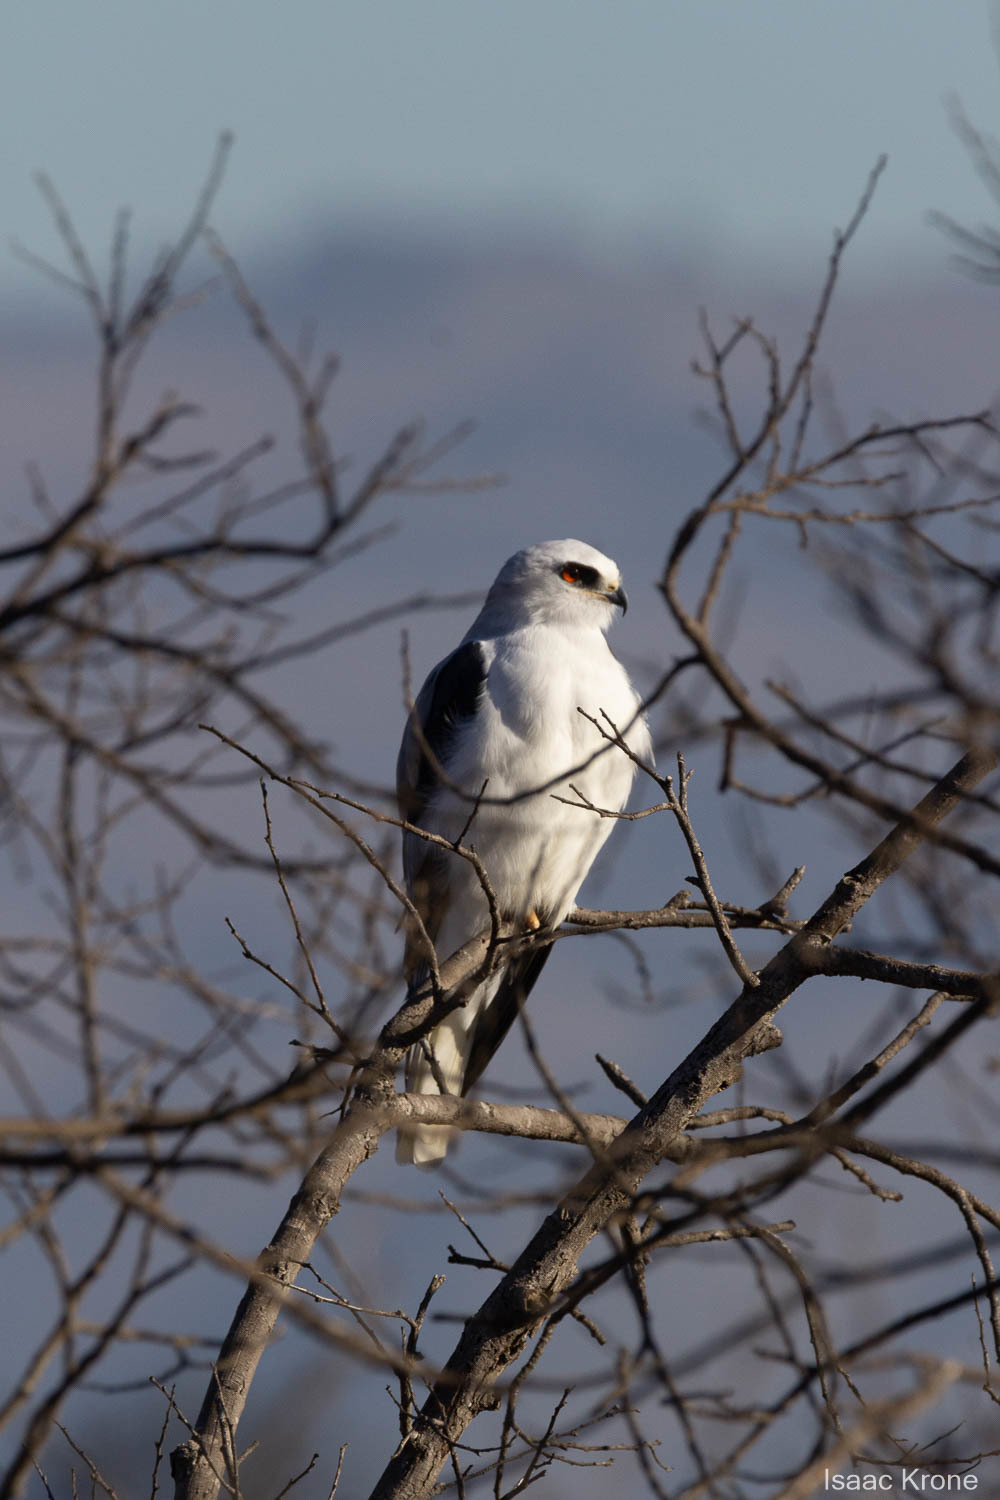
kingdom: Animalia
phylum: Chordata
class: Aves
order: Accipitriformes
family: Accipitridae
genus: Elanus
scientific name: Elanus leucurus
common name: White-tailed kite
